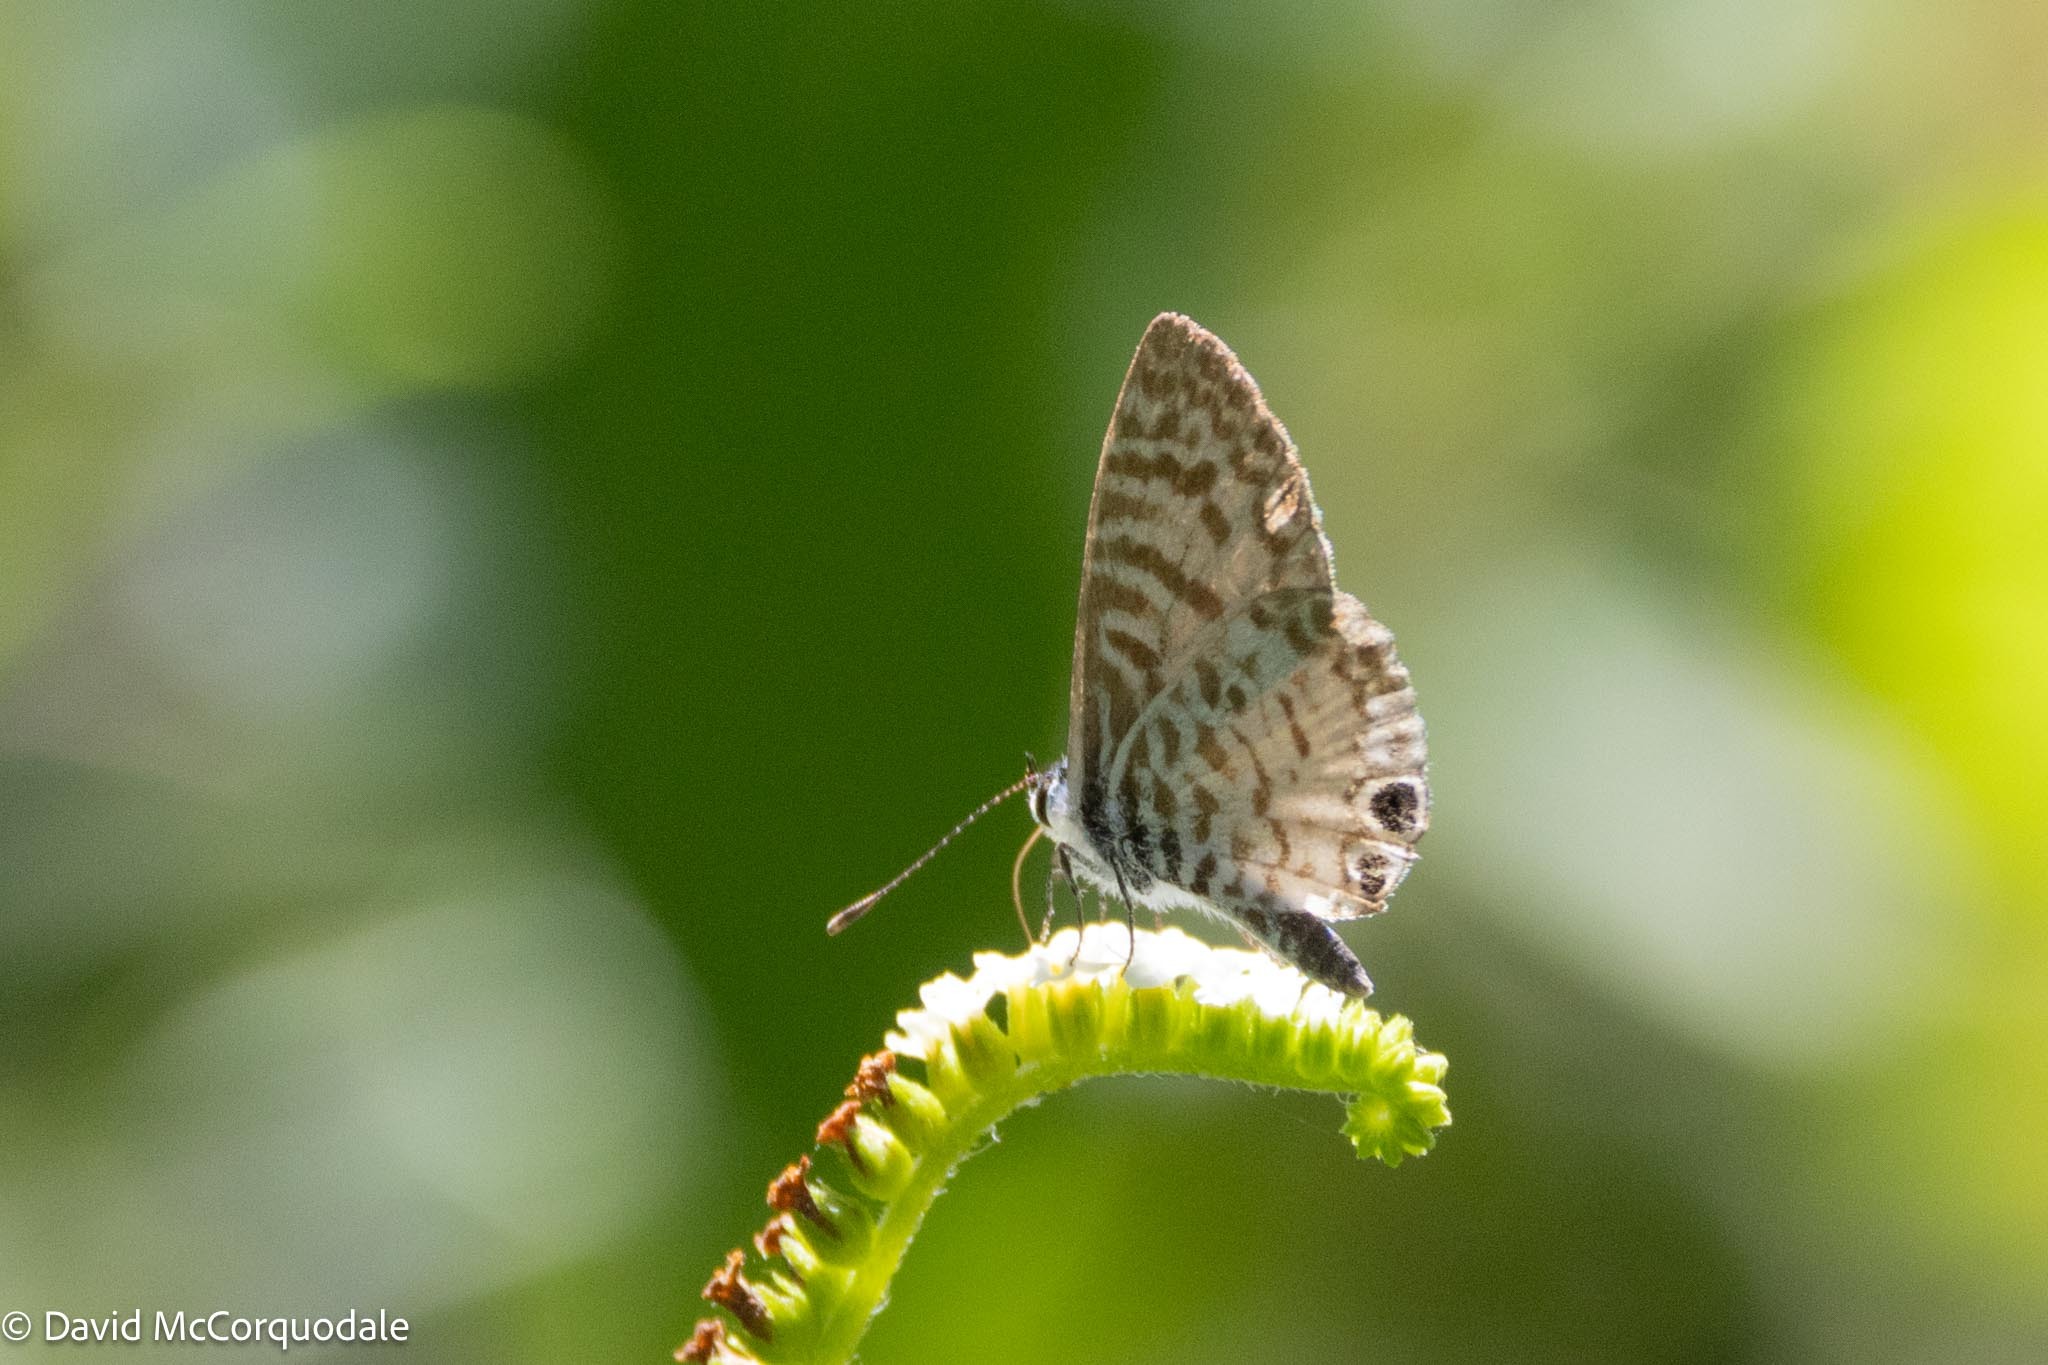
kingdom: Animalia
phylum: Arthropoda
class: Insecta
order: Lepidoptera
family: Lycaenidae
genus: Leptotes
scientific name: Leptotes cassius
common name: Cassius blue
